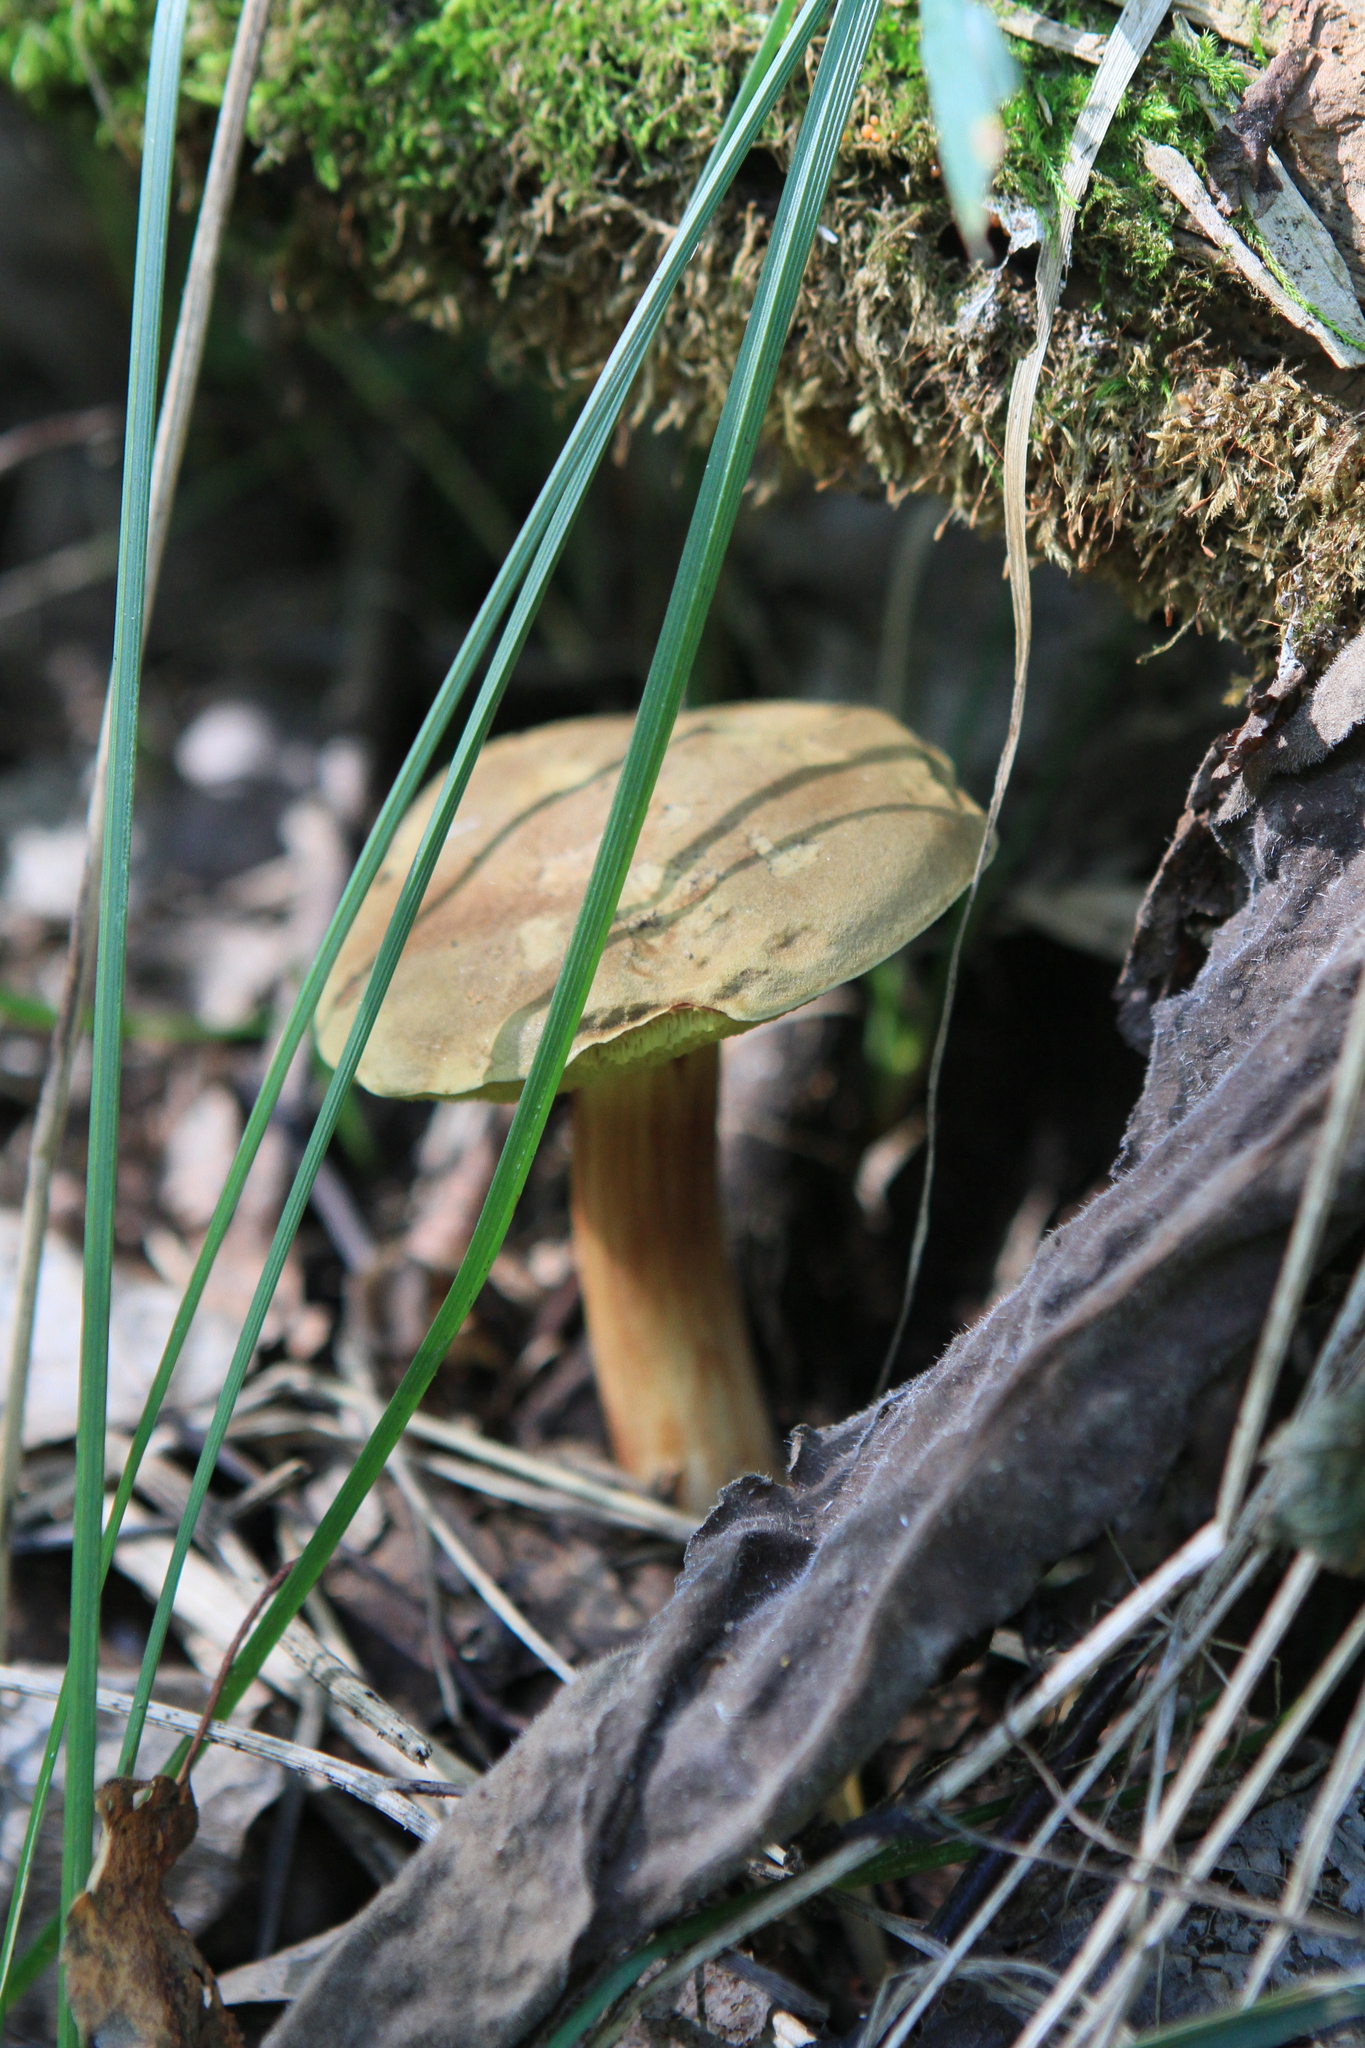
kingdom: Fungi
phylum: Basidiomycota
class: Agaricomycetes
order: Boletales
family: Boletaceae
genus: Xerocomus
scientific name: Xerocomus subtomentosus
